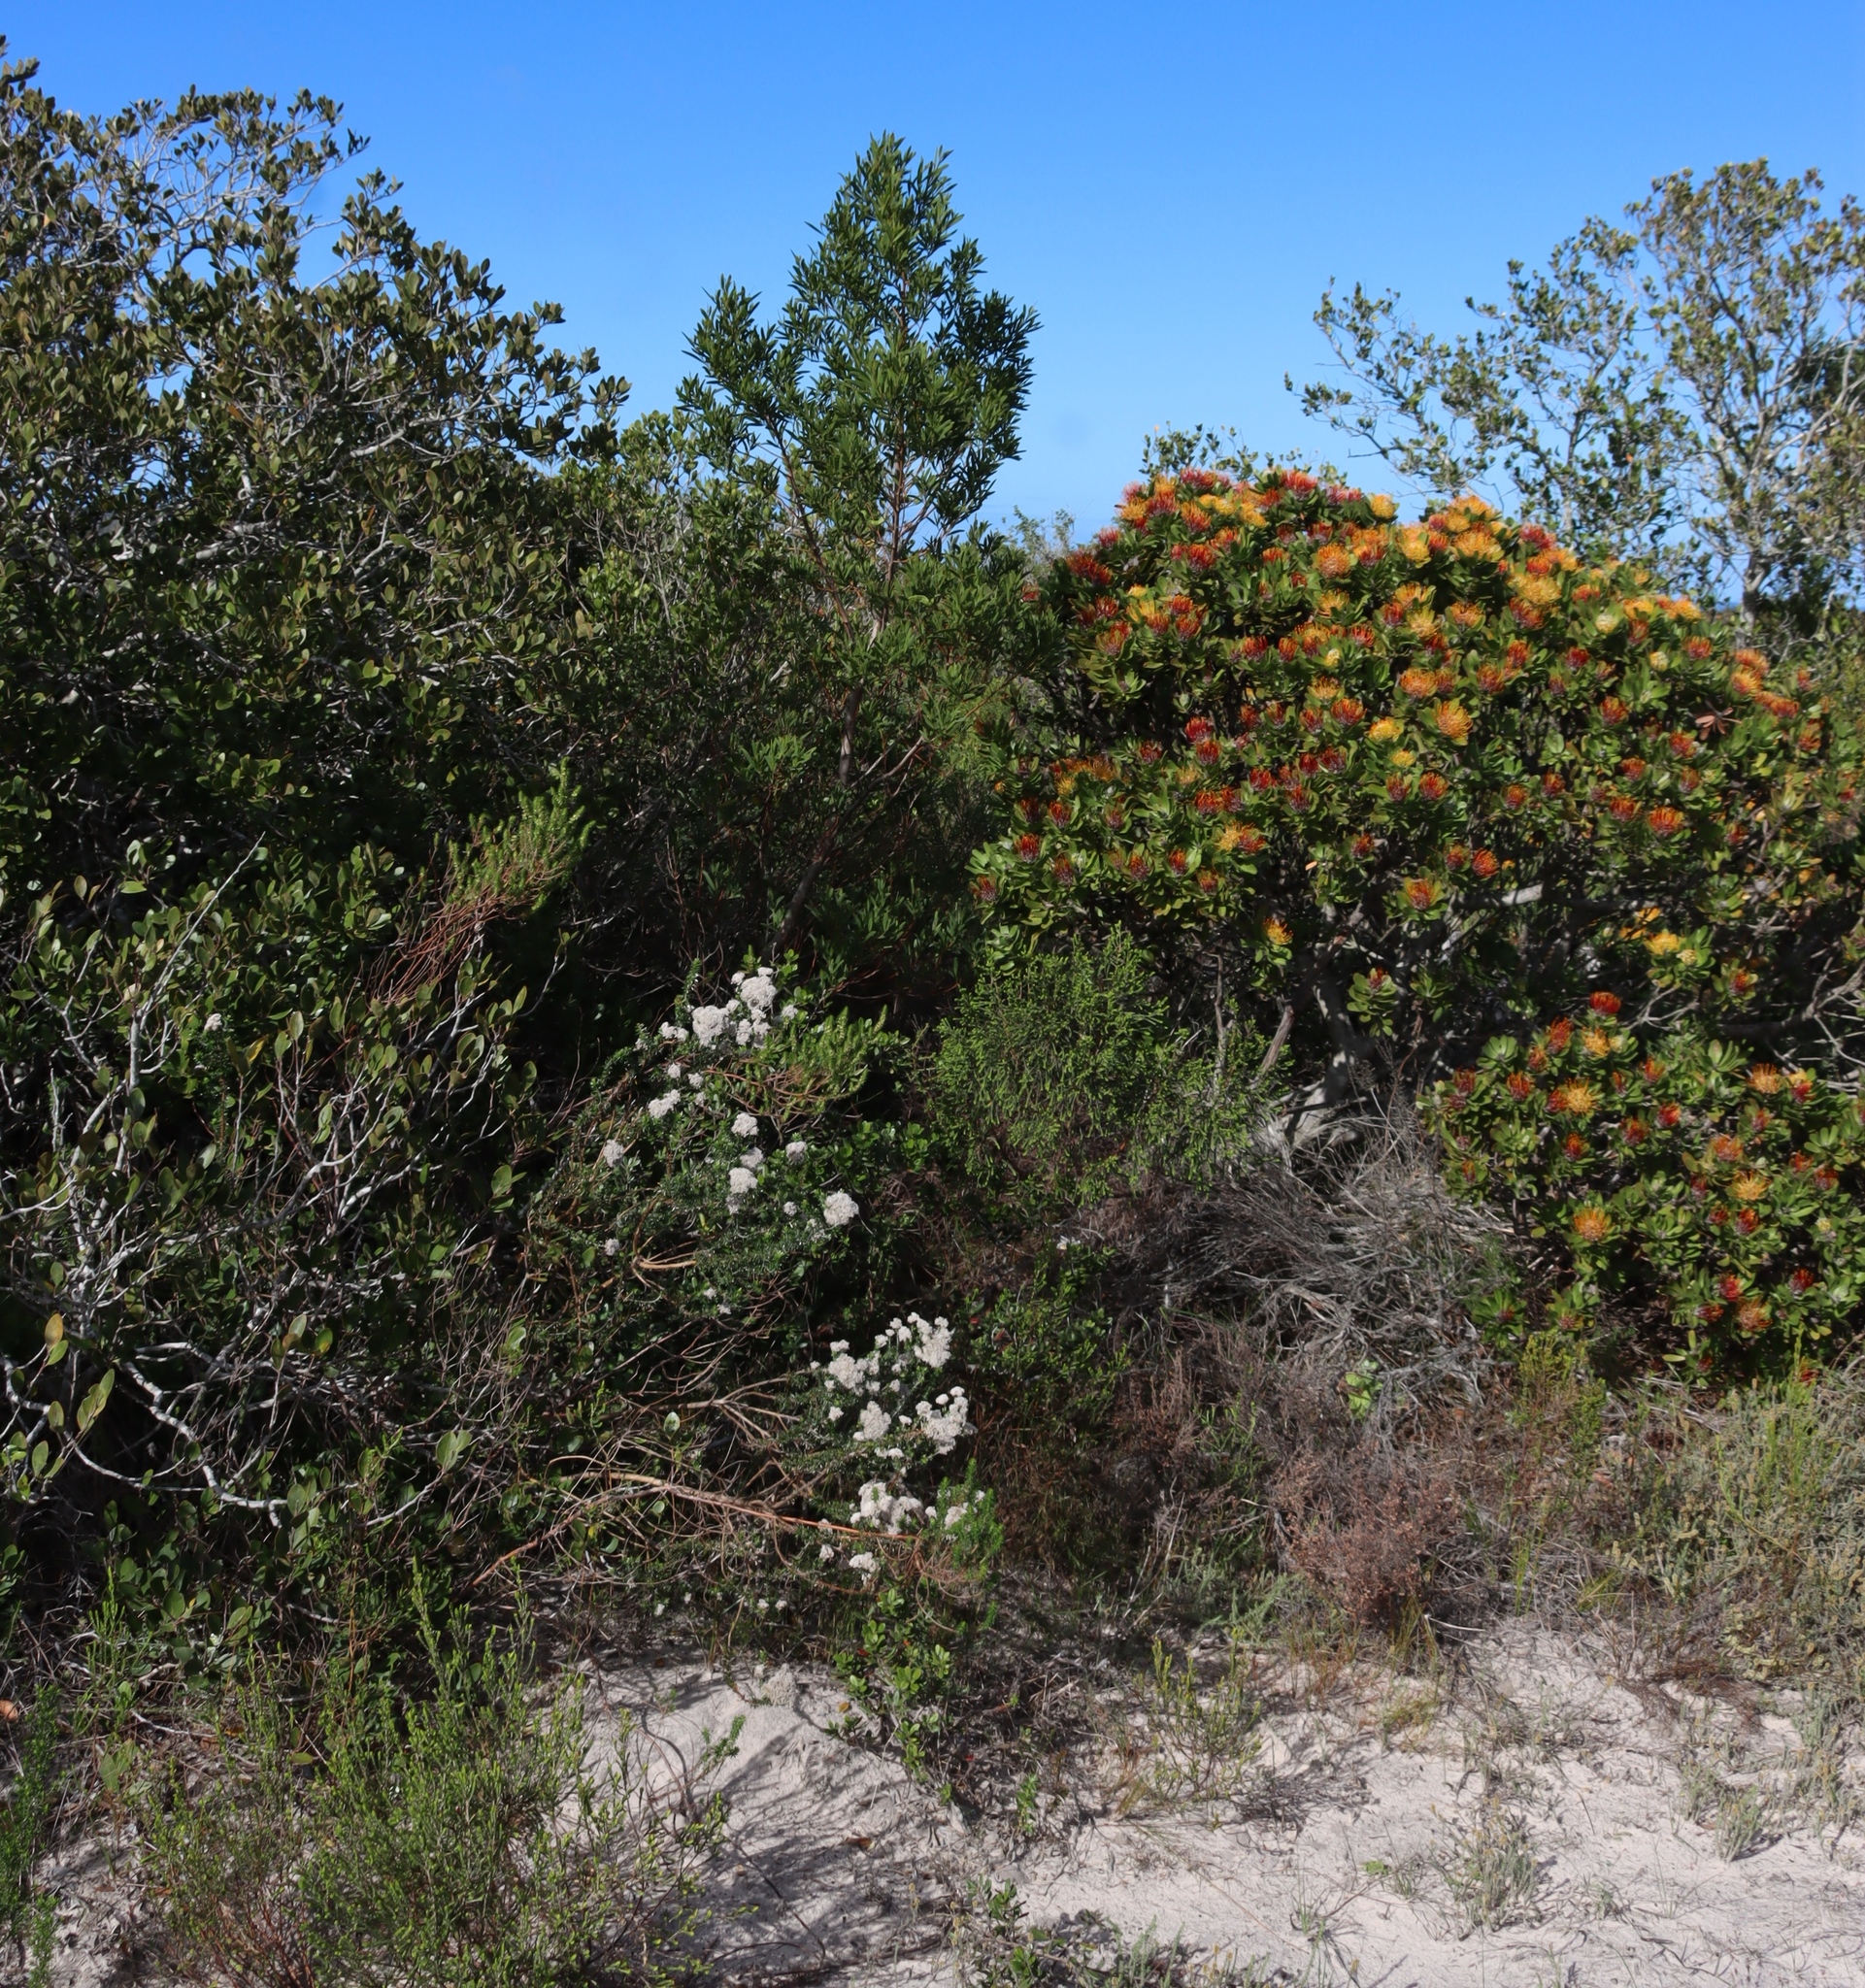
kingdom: Plantae
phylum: Tracheophyta
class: Magnoliopsida
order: Fabales
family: Fabaceae
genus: Acacia
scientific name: Acacia cyclops
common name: Coastal wattle
